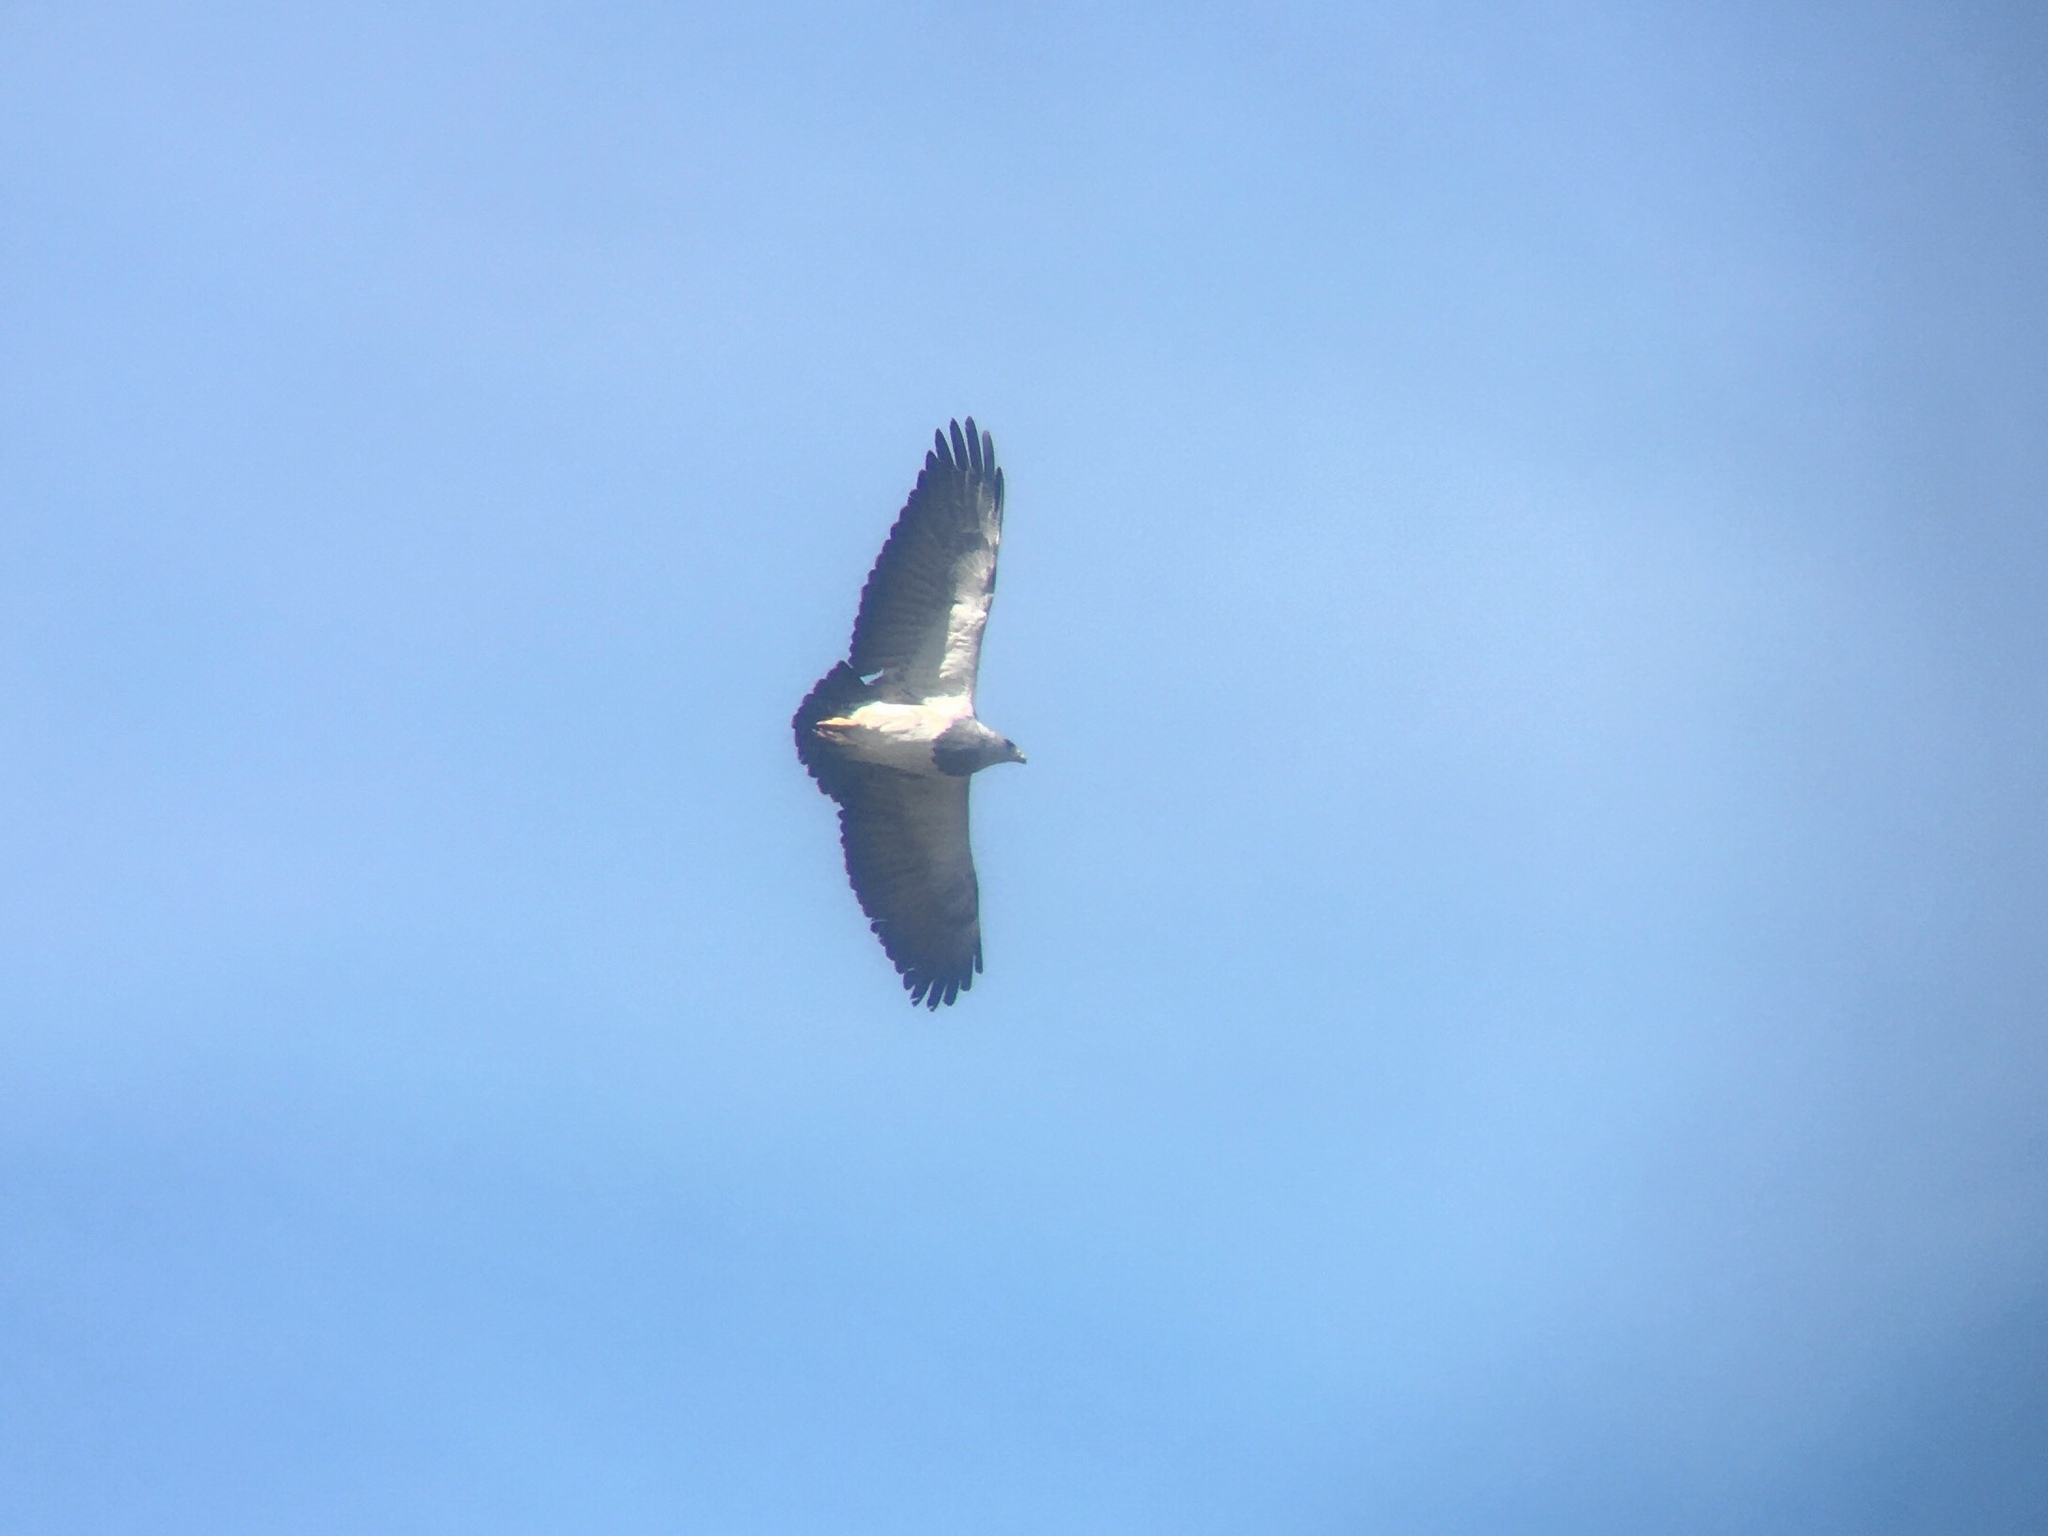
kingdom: Animalia
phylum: Chordata
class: Aves
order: Accipitriformes
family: Accipitridae
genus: Geranoaetus
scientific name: Geranoaetus melanoleucus
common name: Black-chested buzzard-eagle
